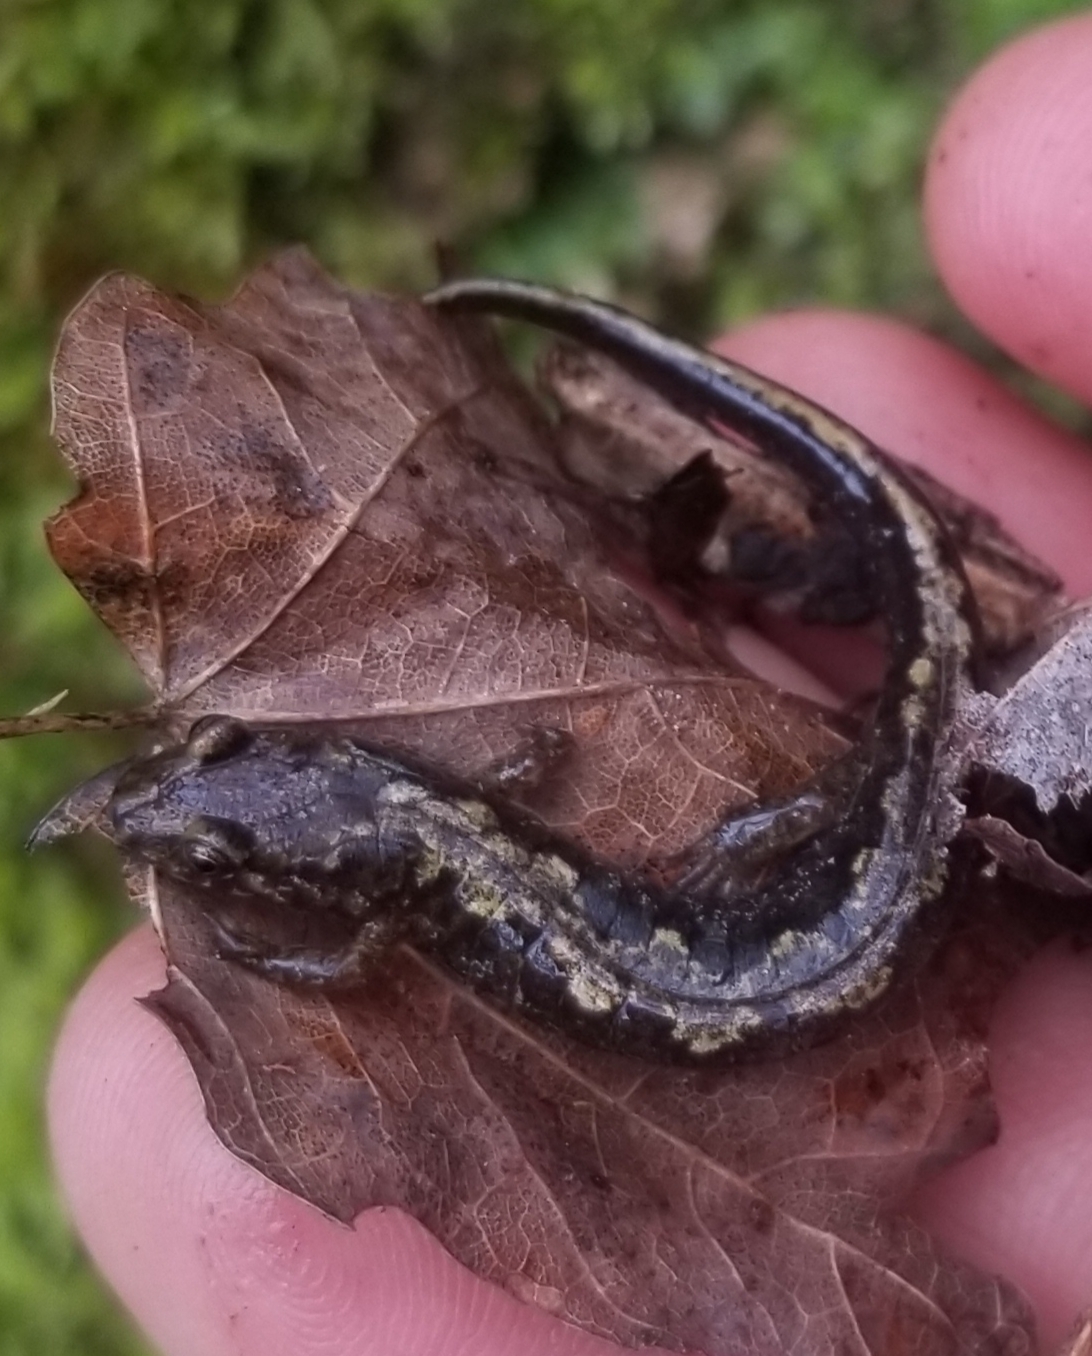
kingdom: Animalia
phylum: Chordata
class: Amphibia
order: Caudata
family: Plethodontidae
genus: Desmognathus
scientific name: Desmognathus carolinensis
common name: Carolina mountain dusky salamander
